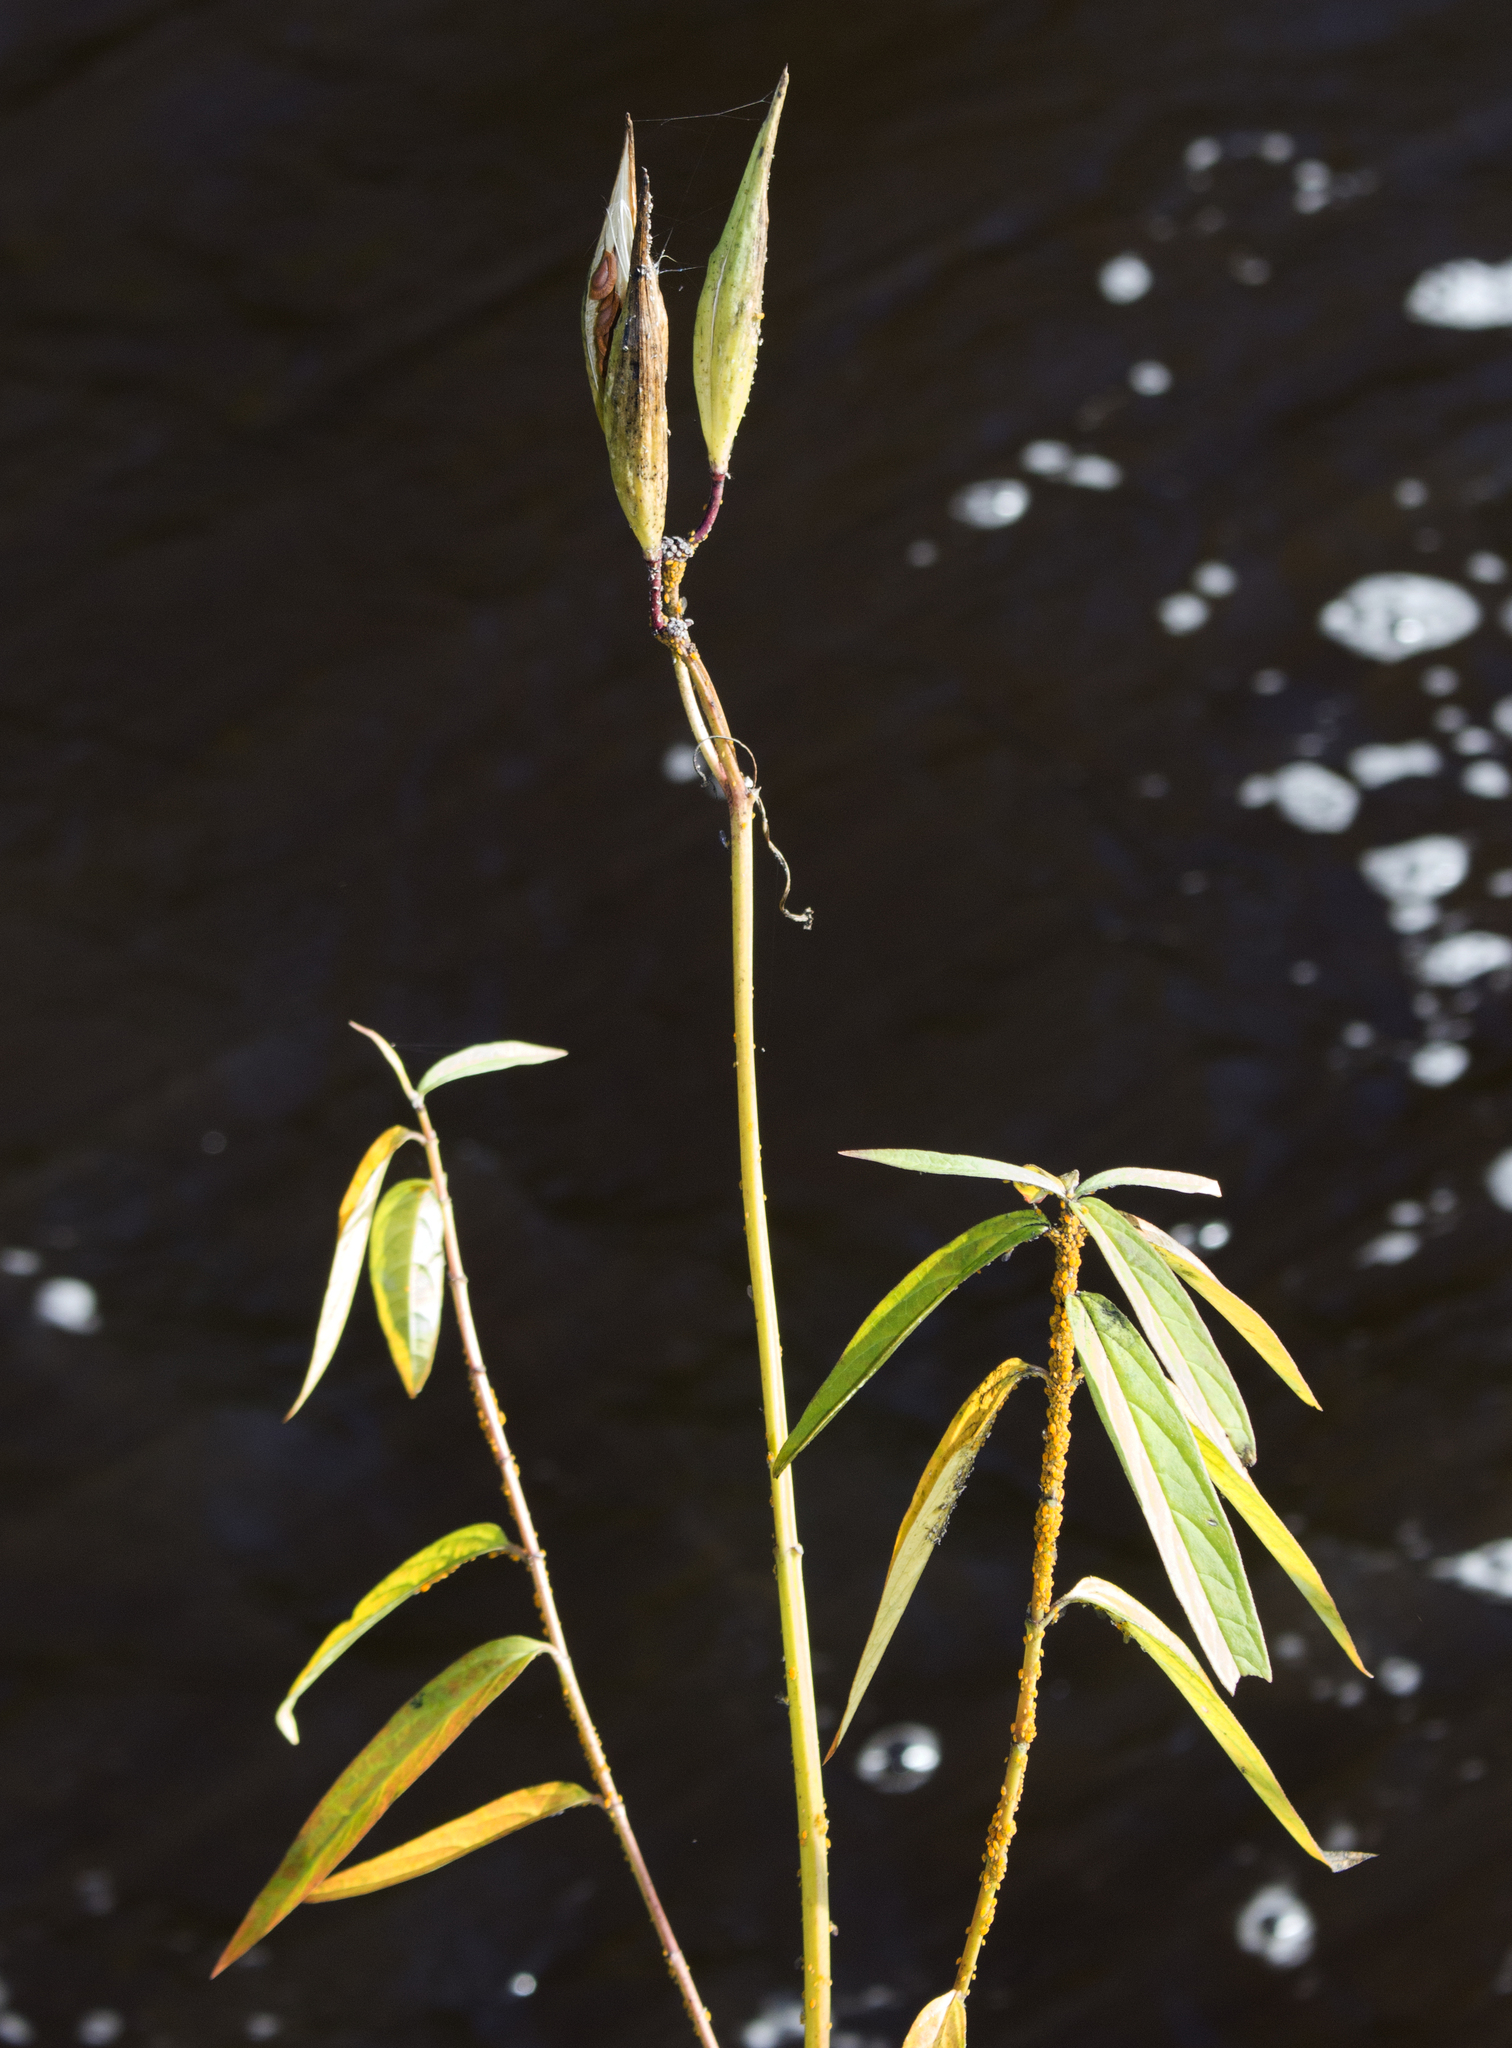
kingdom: Plantae
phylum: Tracheophyta
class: Magnoliopsida
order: Gentianales
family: Apocynaceae
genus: Asclepias
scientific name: Asclepias incarnata
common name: Swamp milkweed
